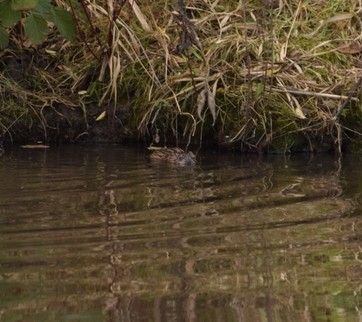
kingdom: Animalia
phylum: Chordata
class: Mammalia
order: Rodentia
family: Cricetidae
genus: Ondatra
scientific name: Ondatra zibethicus
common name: Muskrat
